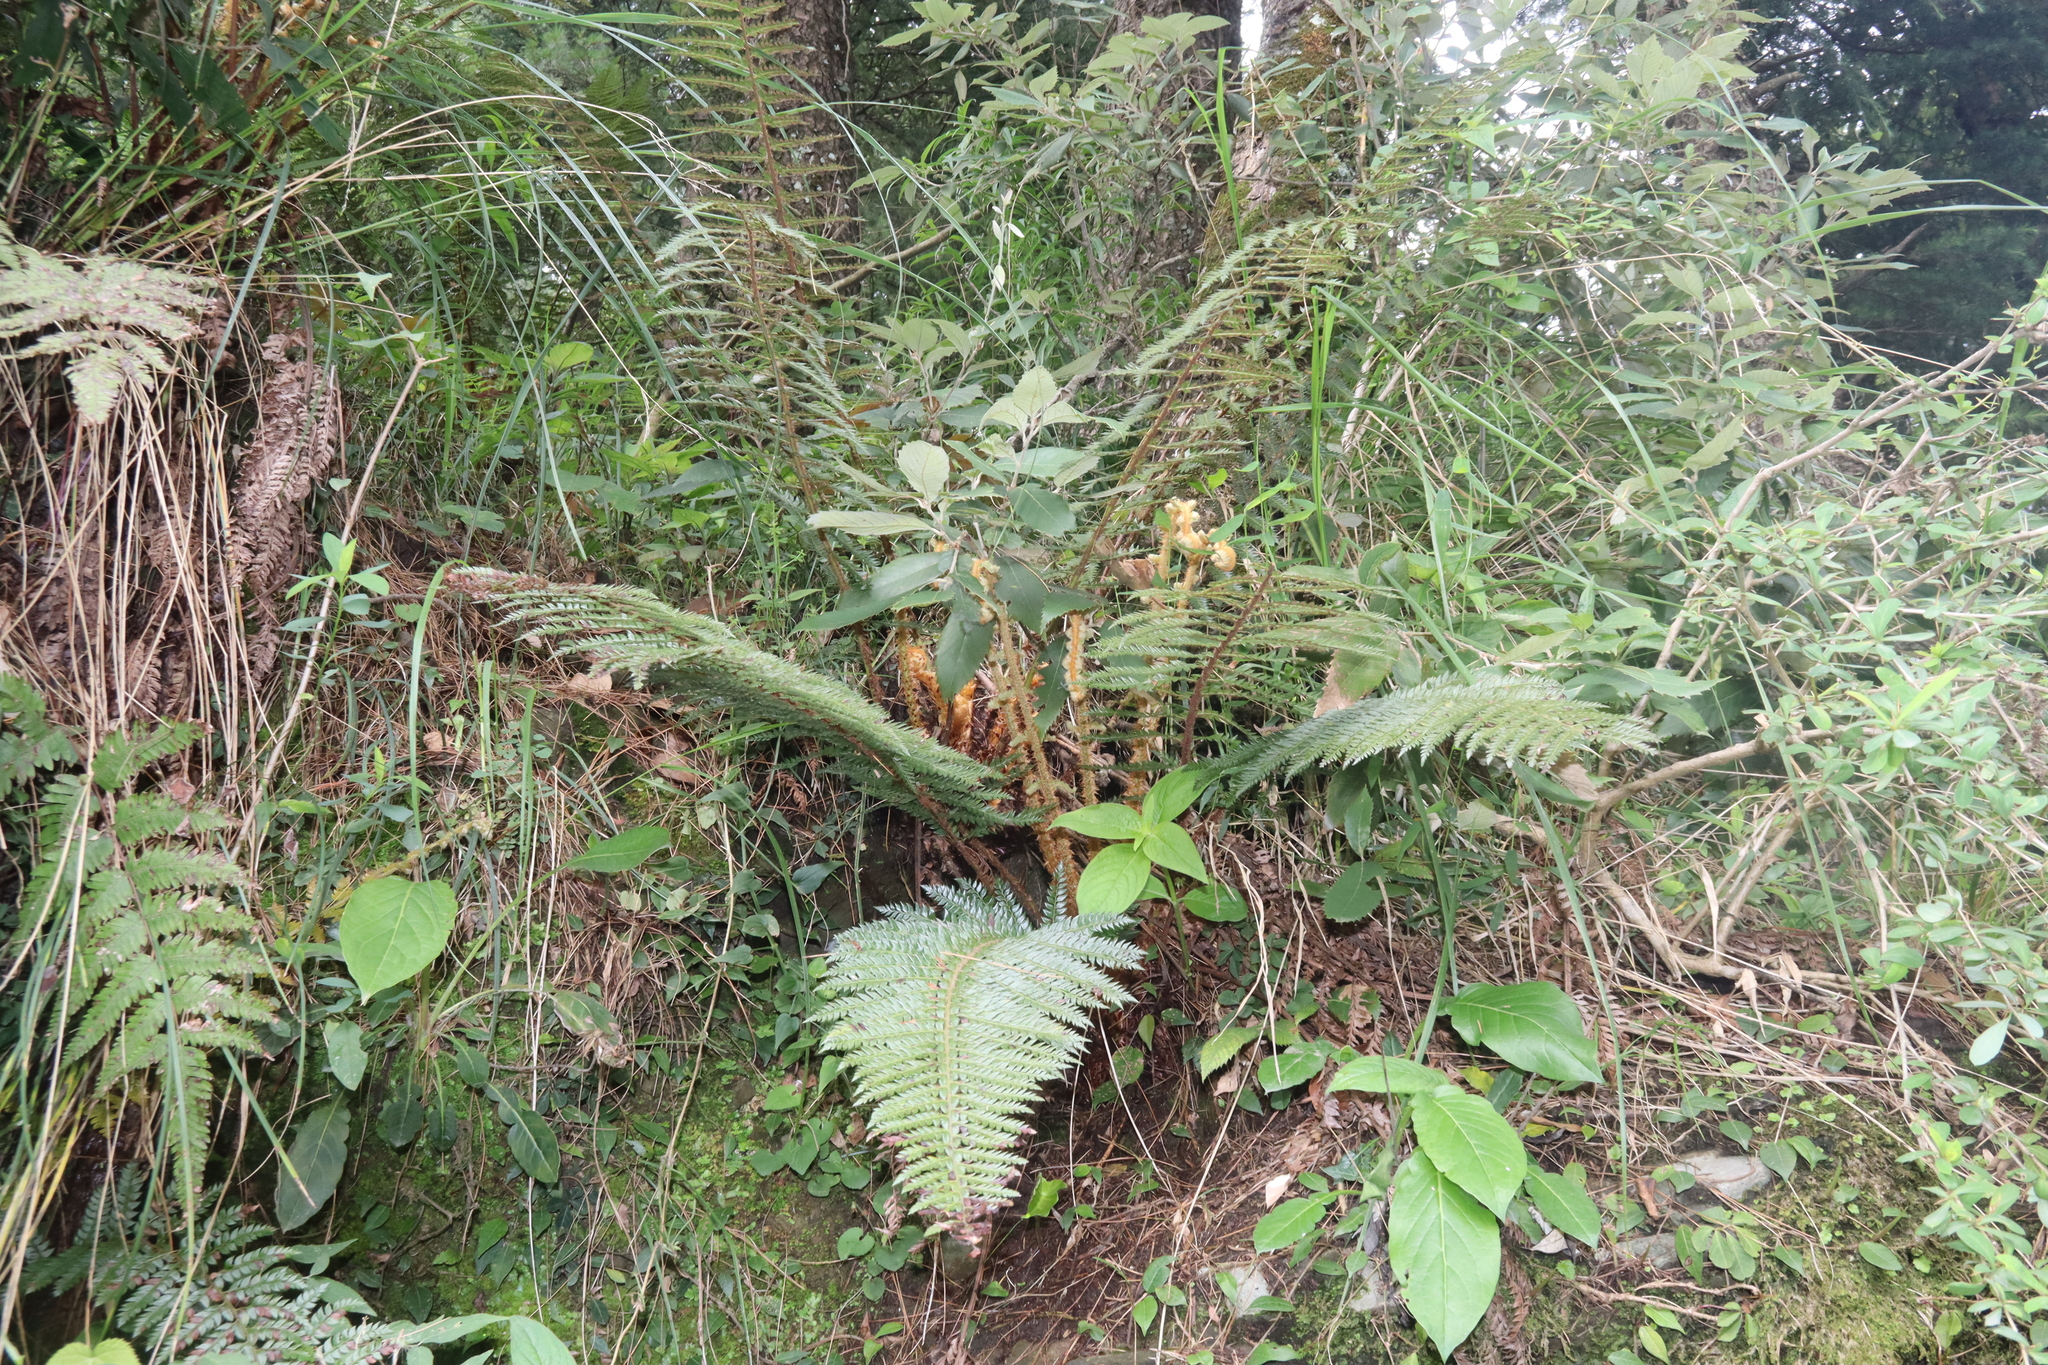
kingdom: Plantae
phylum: Tracheophyta
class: Polypodiopsida
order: Polypodiales
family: Dryopteridaceae
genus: Polystichum
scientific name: Polystichum squarrosum
